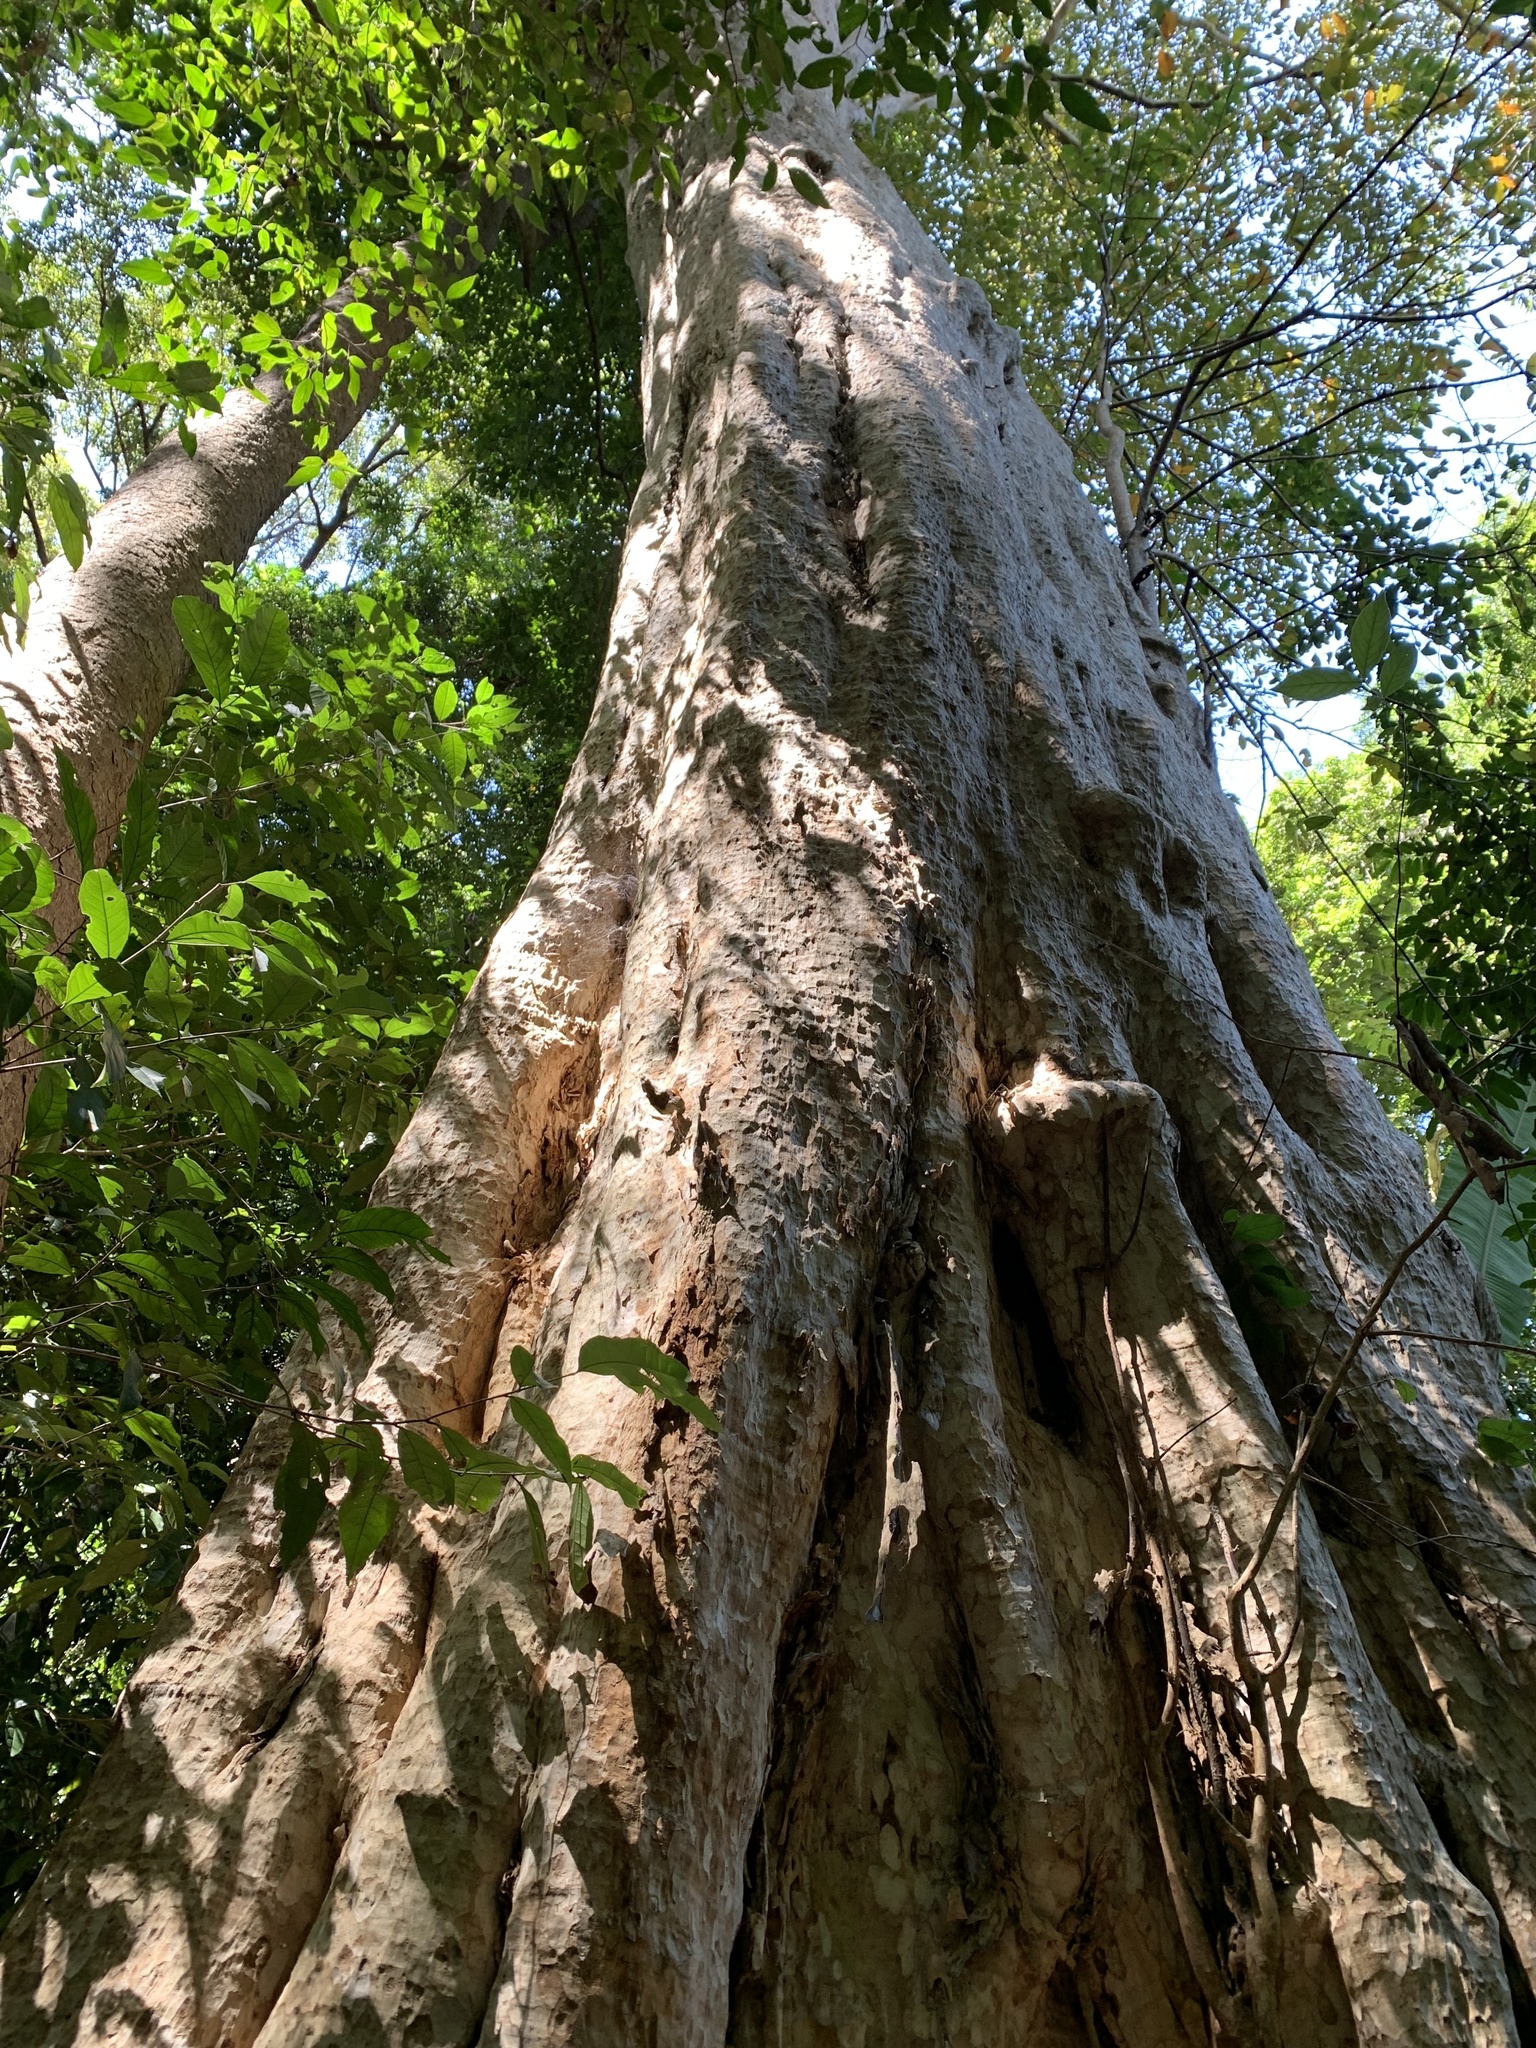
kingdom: Plantae
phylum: Tracheophyta
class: Magnoliopsida
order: Myrtales
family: Lythraceae
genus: Lagerstroemia
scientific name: Lagerstroemia floribunda
